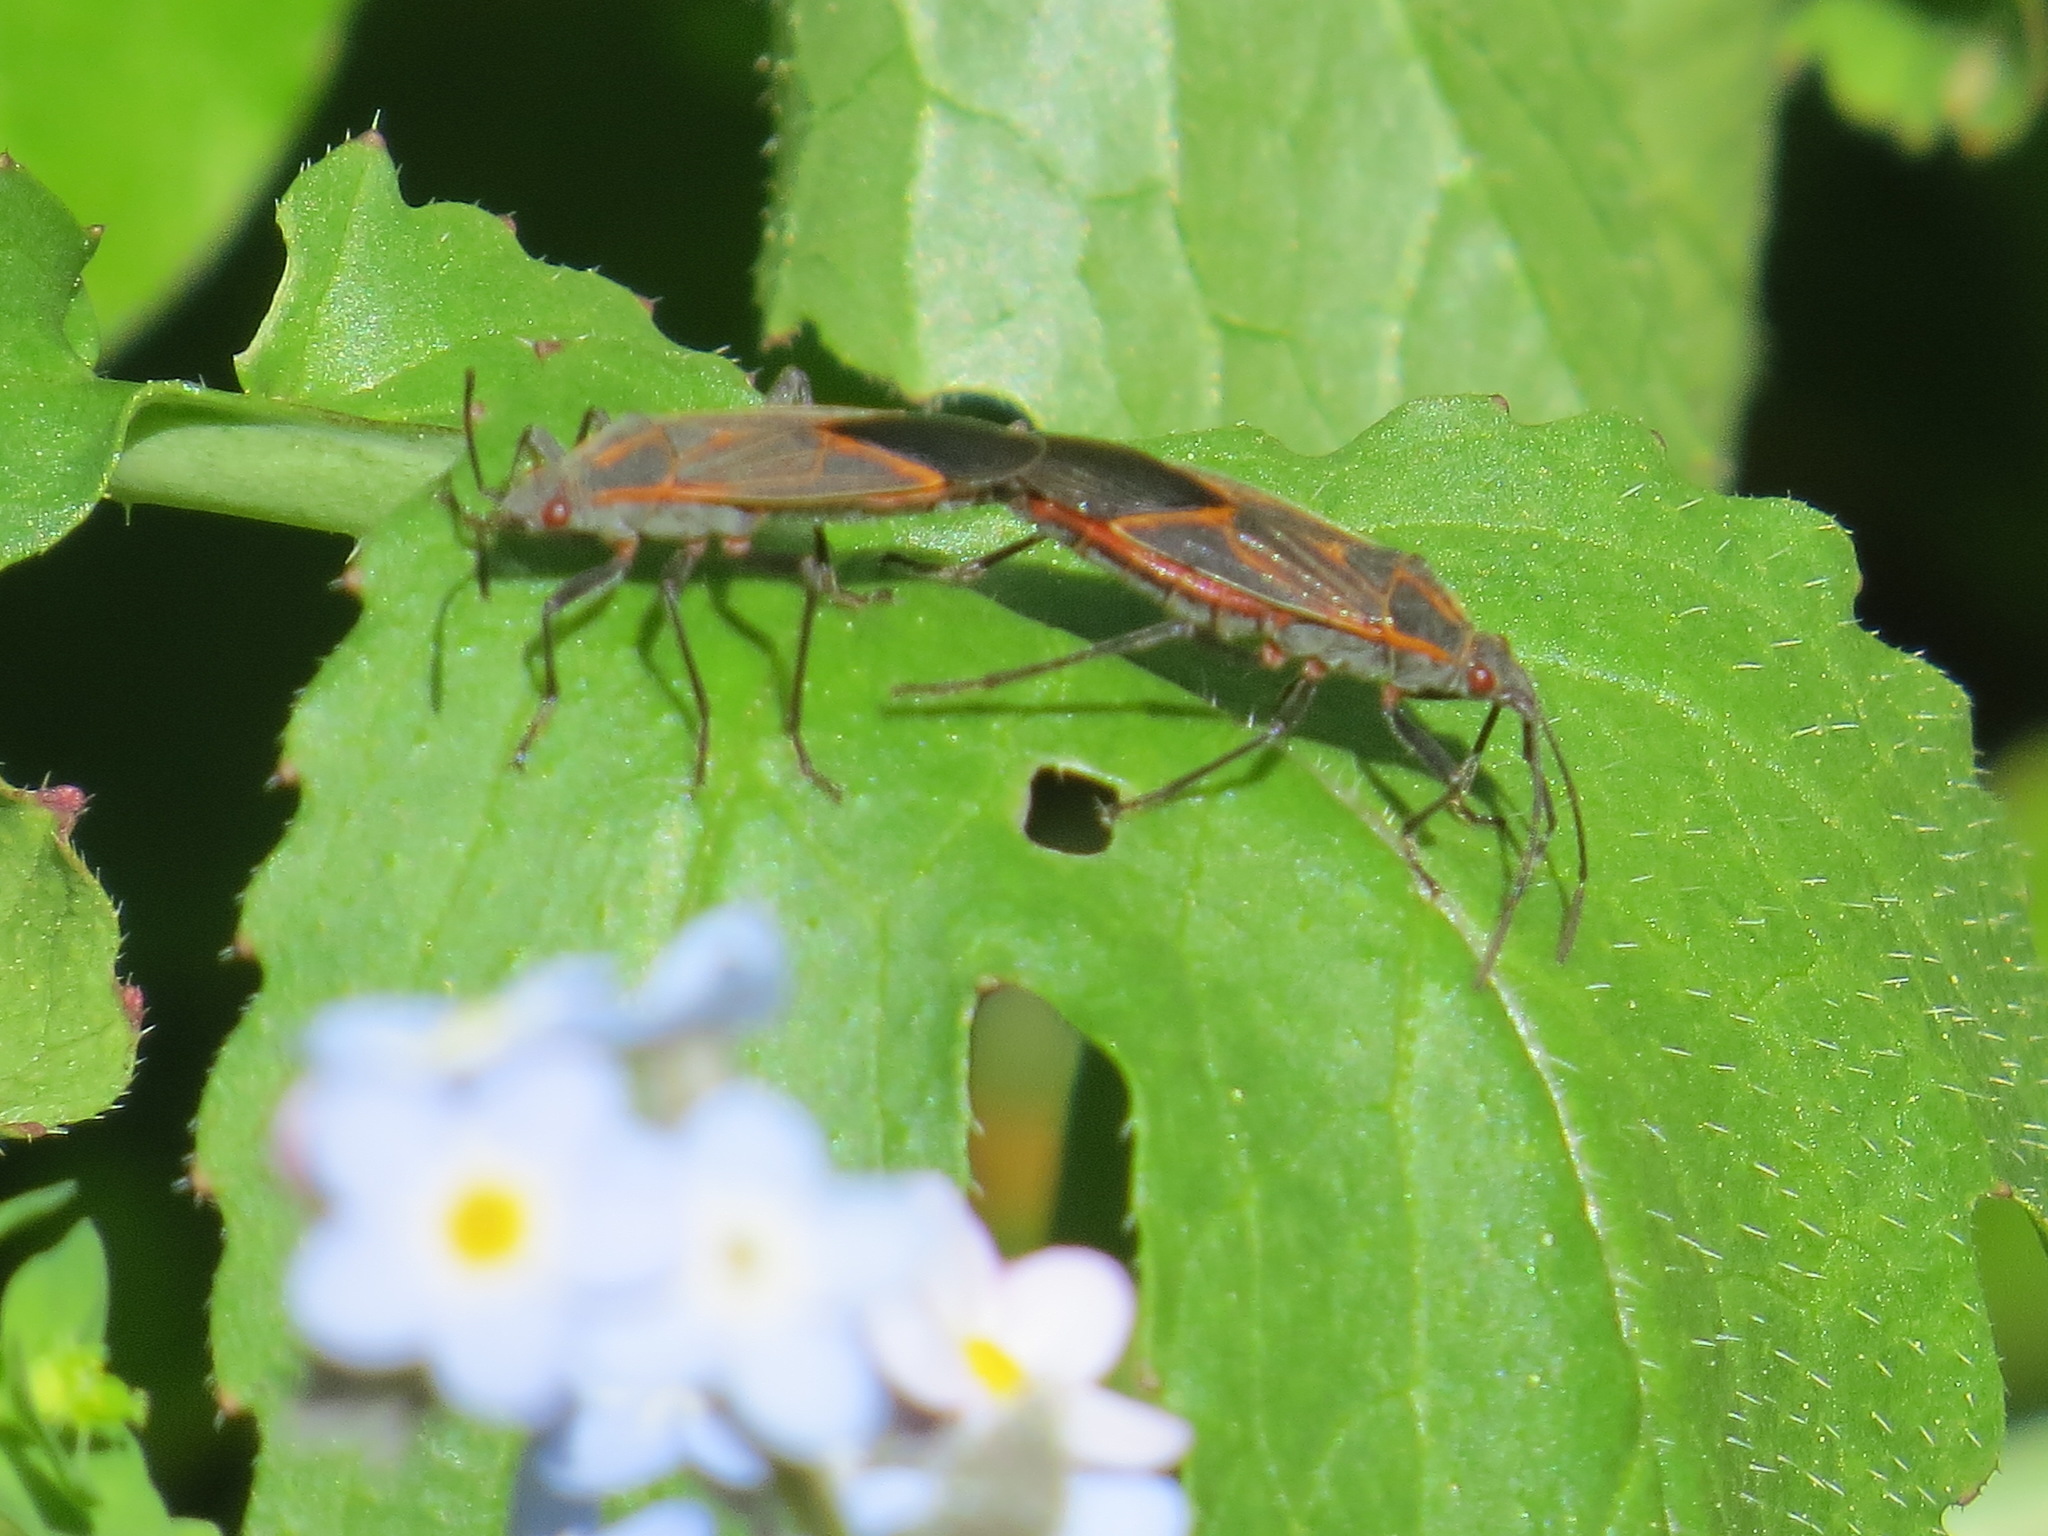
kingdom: Animalia
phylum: Arthropoda
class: Insecta
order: Hemiptera
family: Rhopalidae
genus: Boisea
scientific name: Boisea rubrolineata
